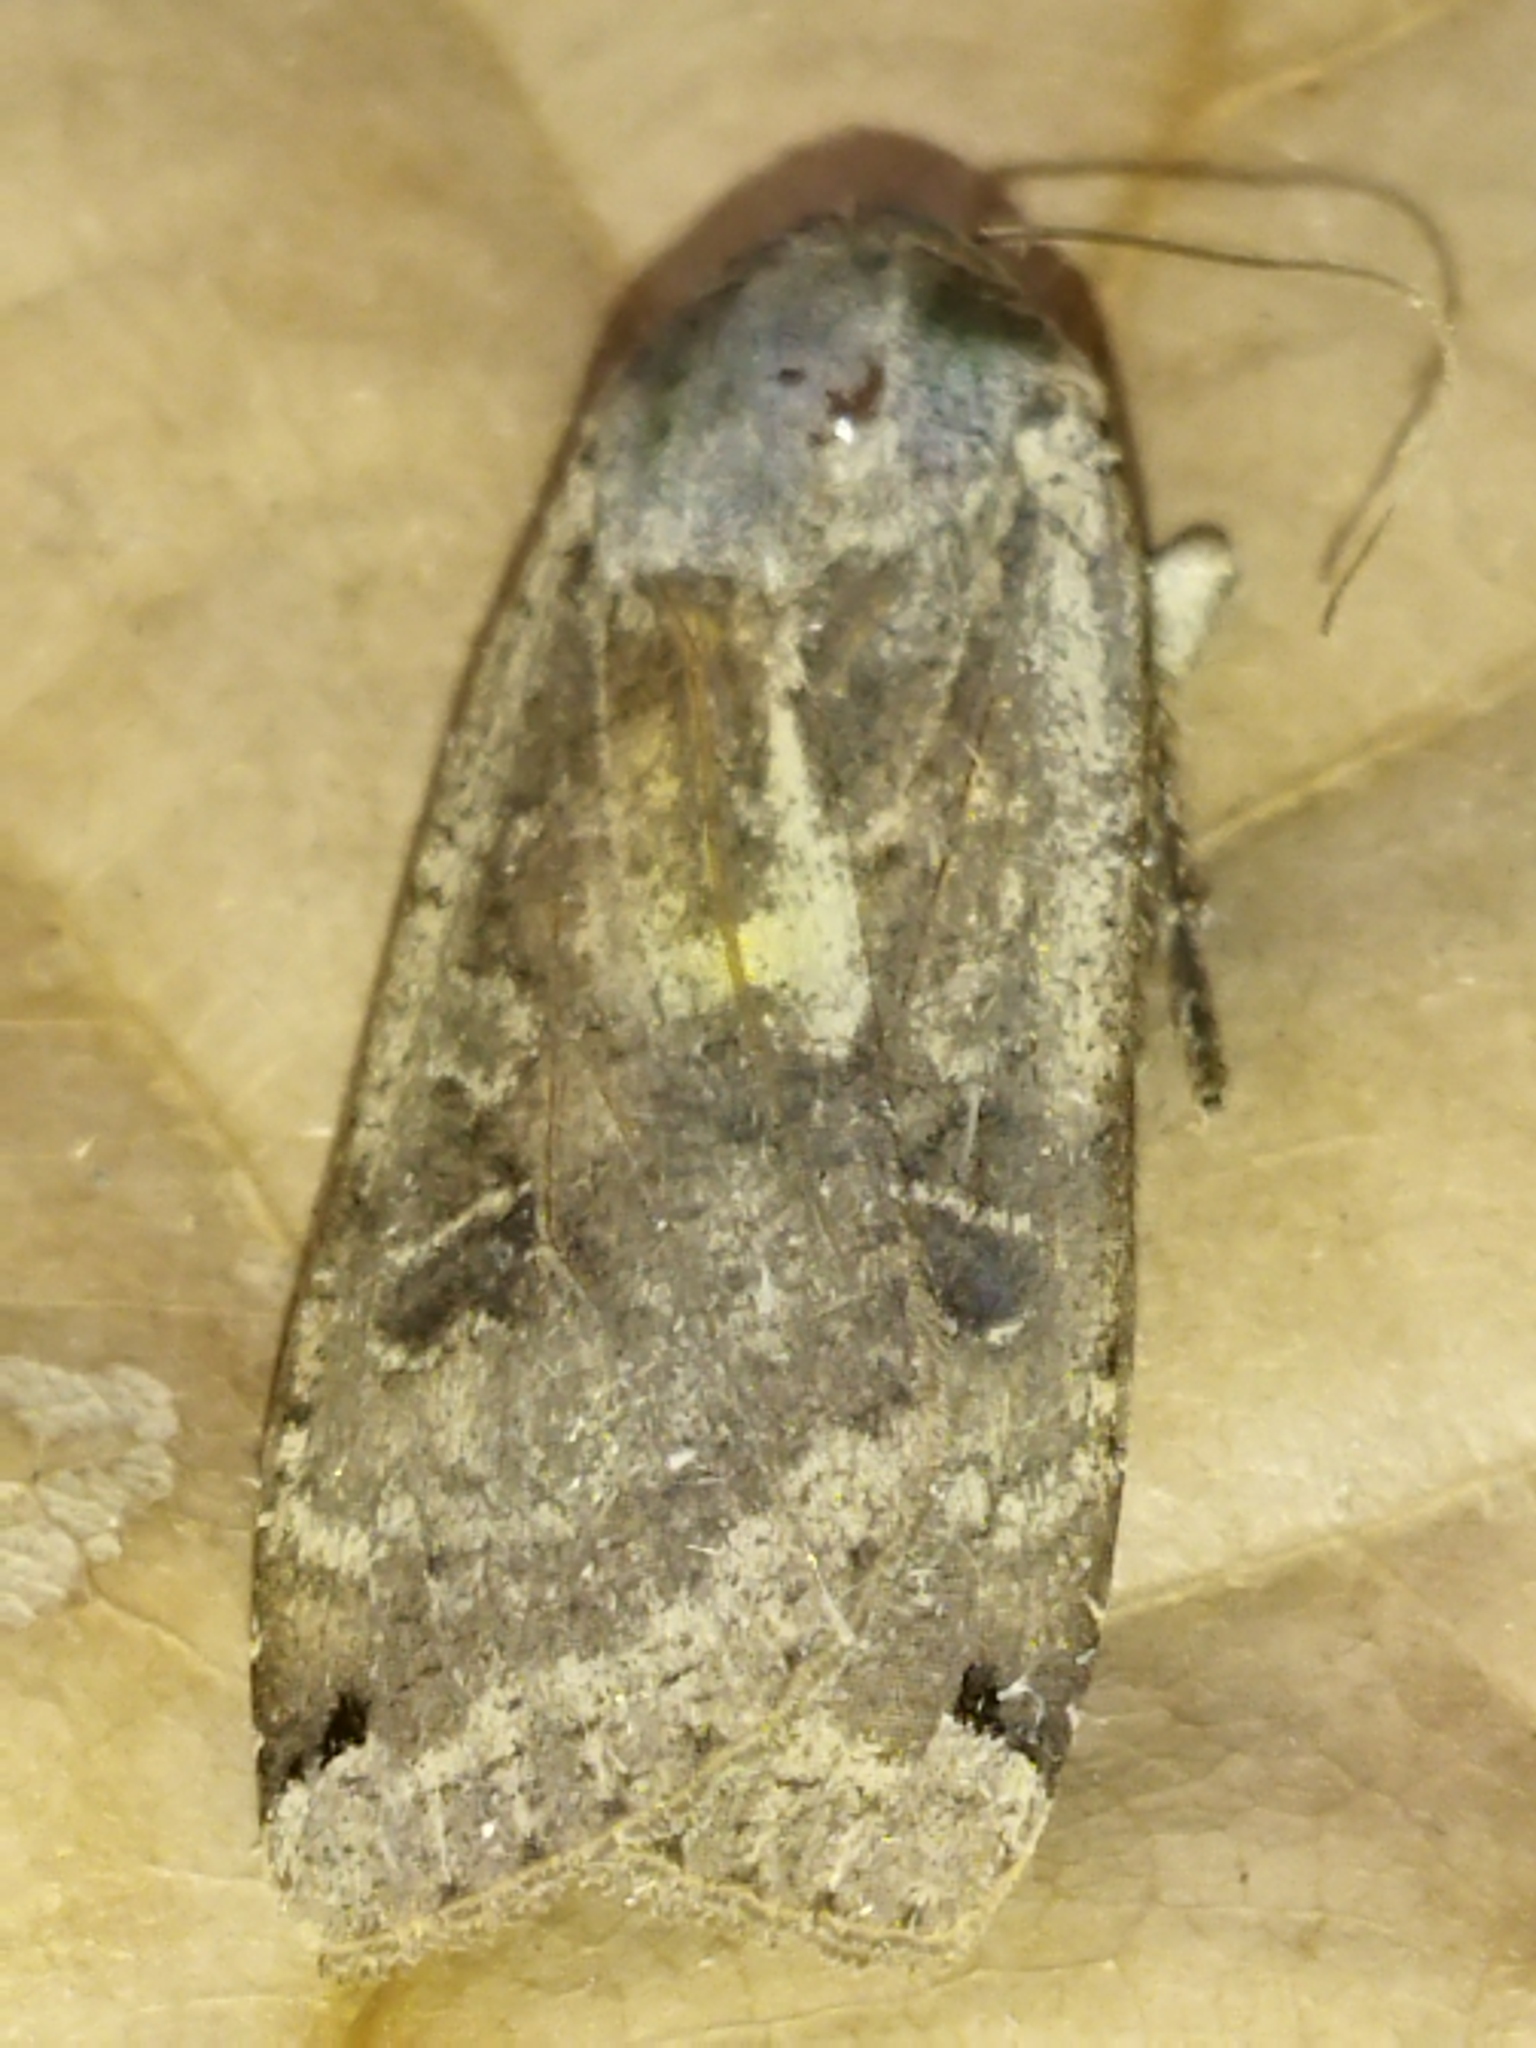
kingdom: Animalia
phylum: Arthropoda
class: Insecta
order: Lepidoptera
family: Noctuidae
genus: Noctua
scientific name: Noctua pronuba
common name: Large yellow underwing
